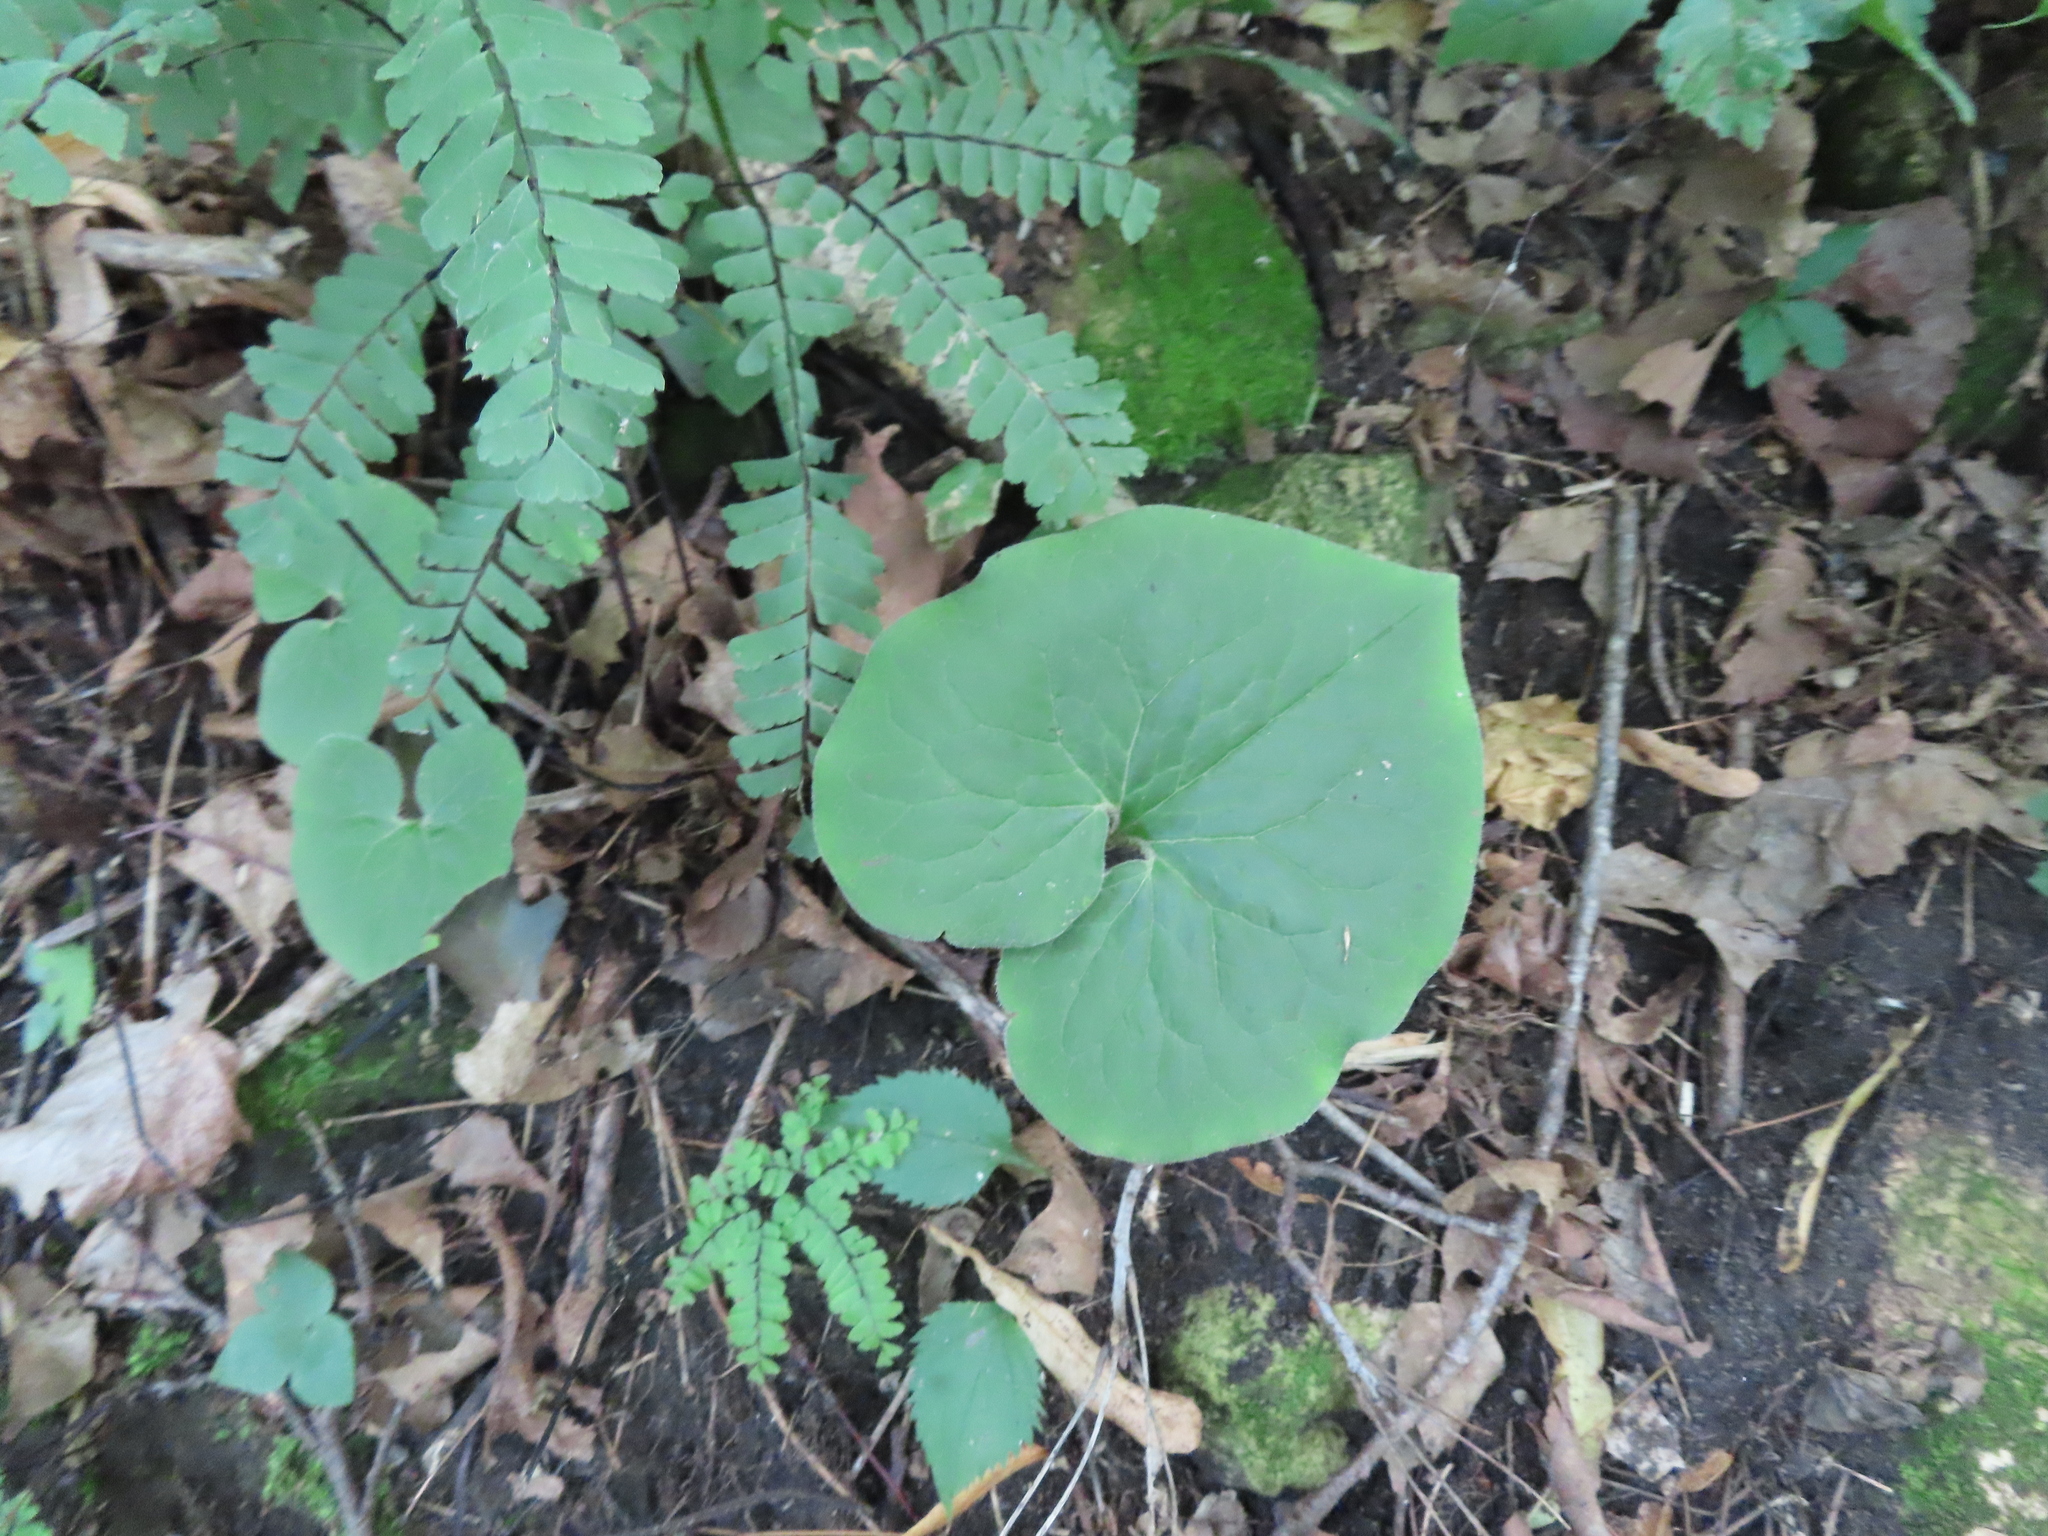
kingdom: Plantae
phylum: Tracheophyta
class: Magnoliopsida
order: Piperales
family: Aristolochiaceae
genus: Asarum
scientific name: Asarum canadense
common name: Wild ginger
